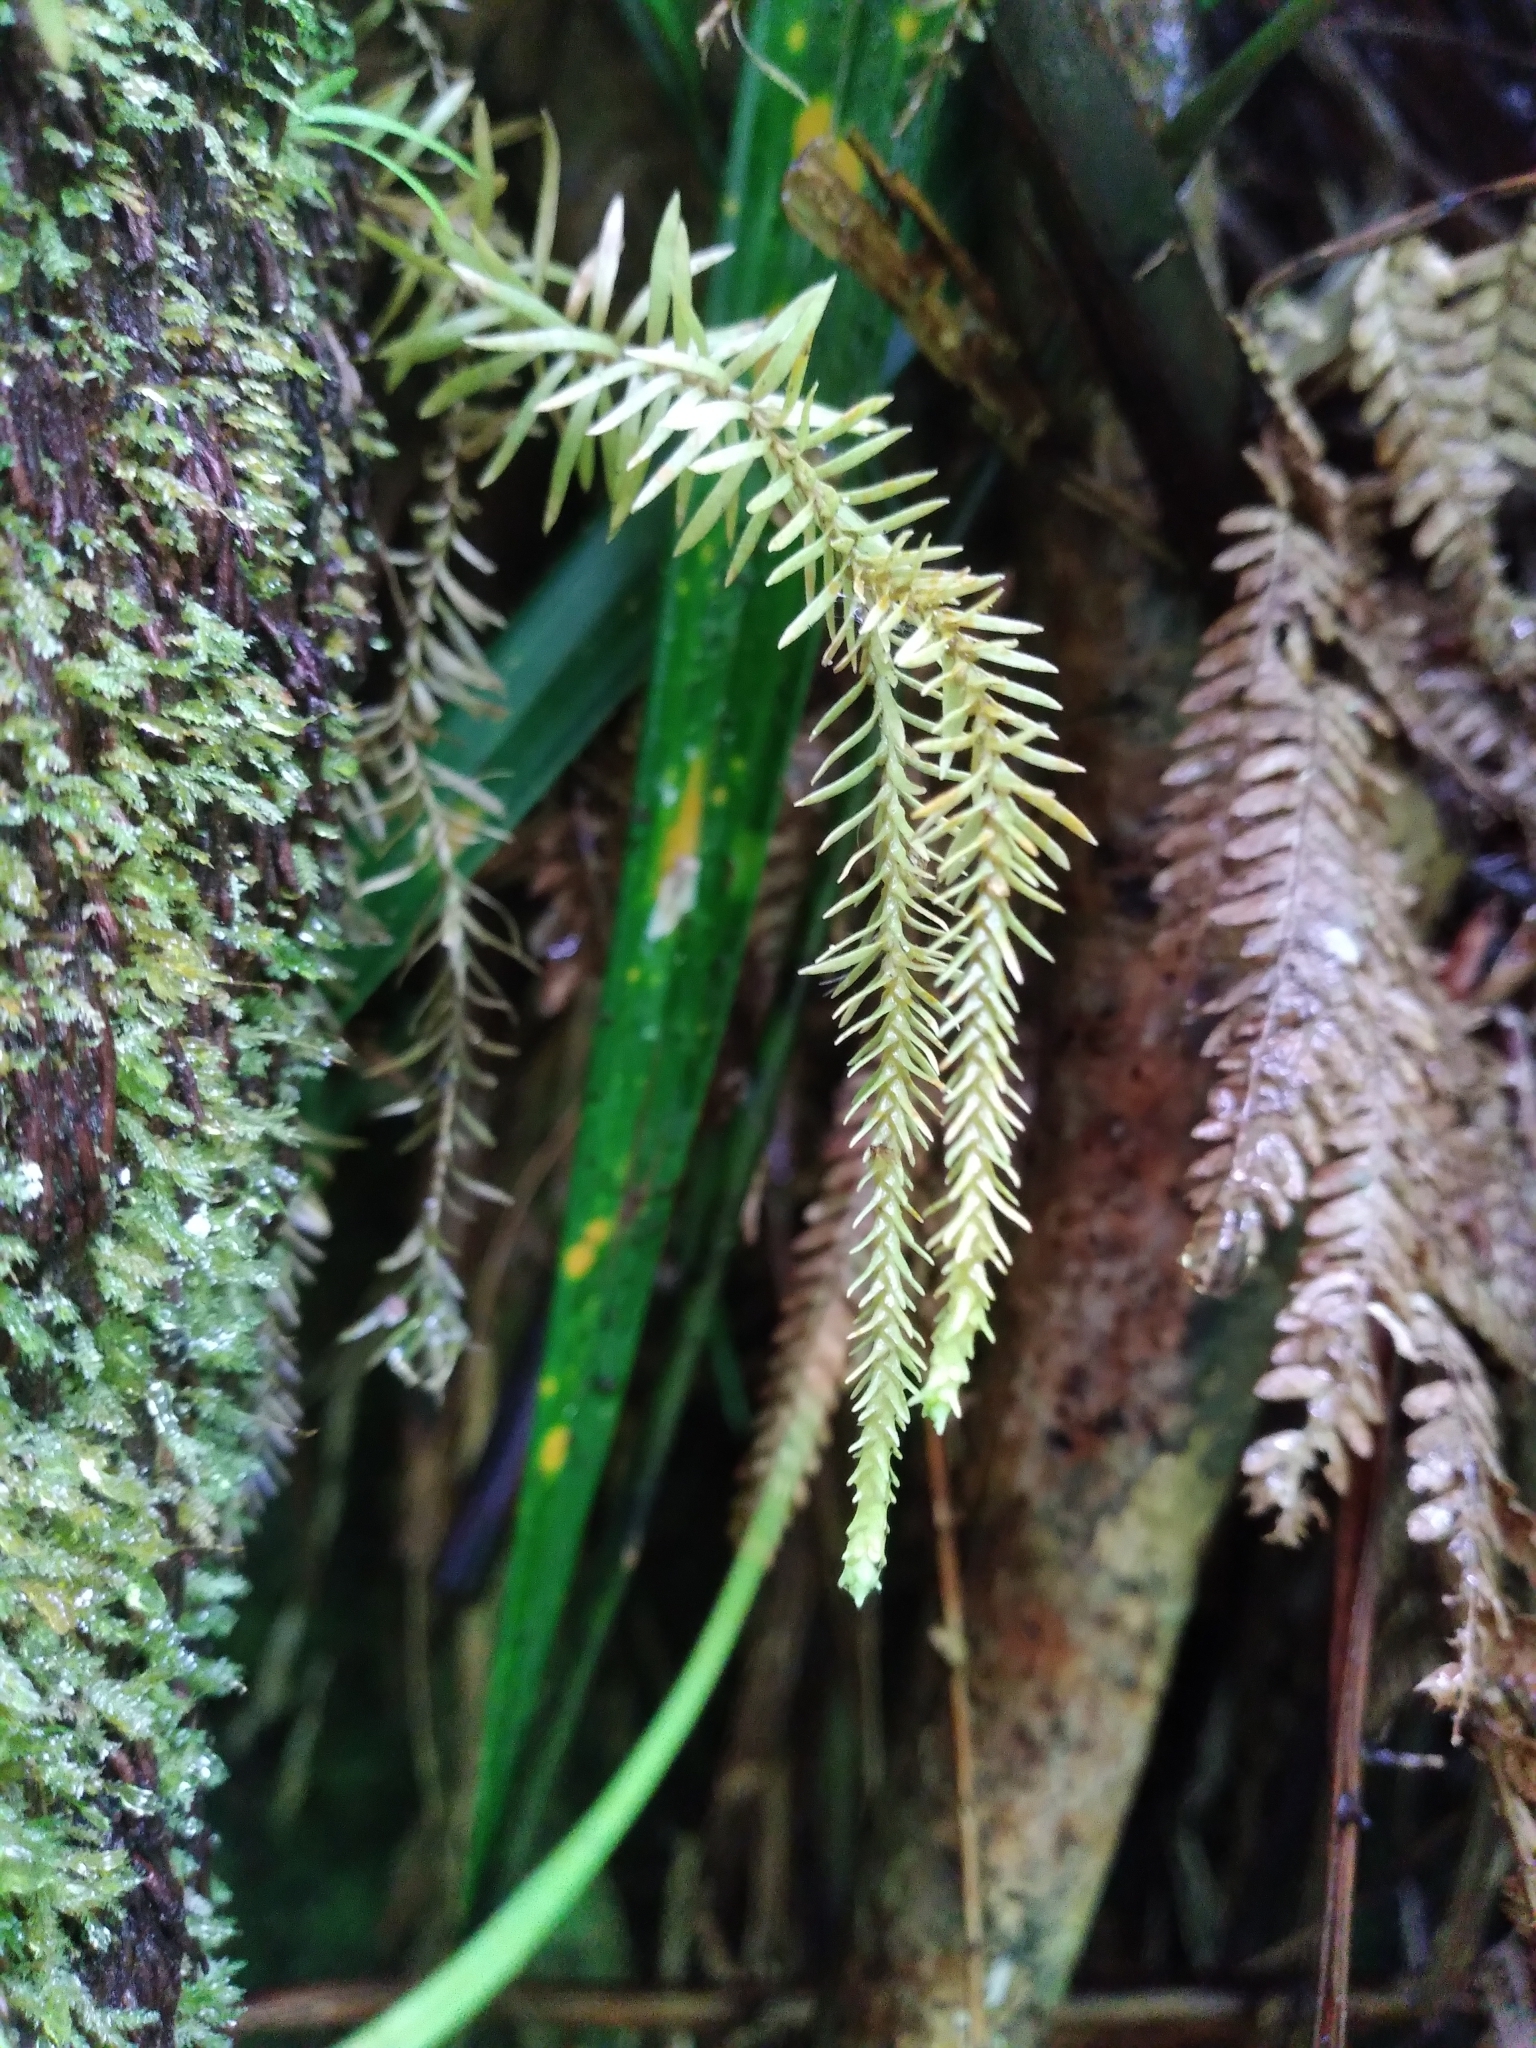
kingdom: Plantae
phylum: Tracheophyta
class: Lycopodiopsida
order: Lycopodiales
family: Lycopodiaceae
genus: Phlegmariurus
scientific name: Phlegmariurus varius
